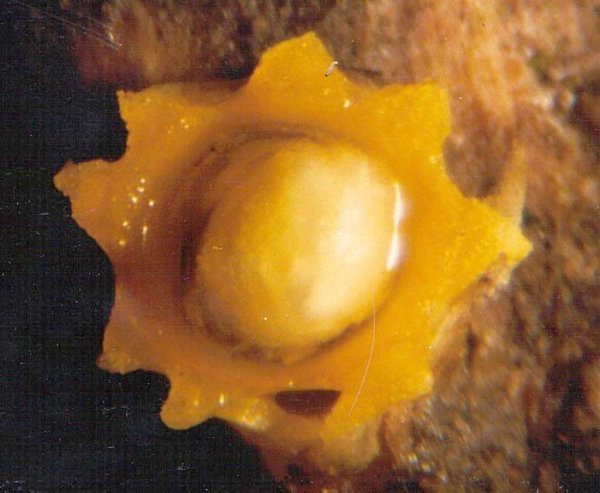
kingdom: Fungi
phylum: Basidiomycota
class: Agaricomycetes
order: Geastrales
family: Geastraceae
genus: Sphaerobolus
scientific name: Sphaerobolus stellatus
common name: Cannon fungus
